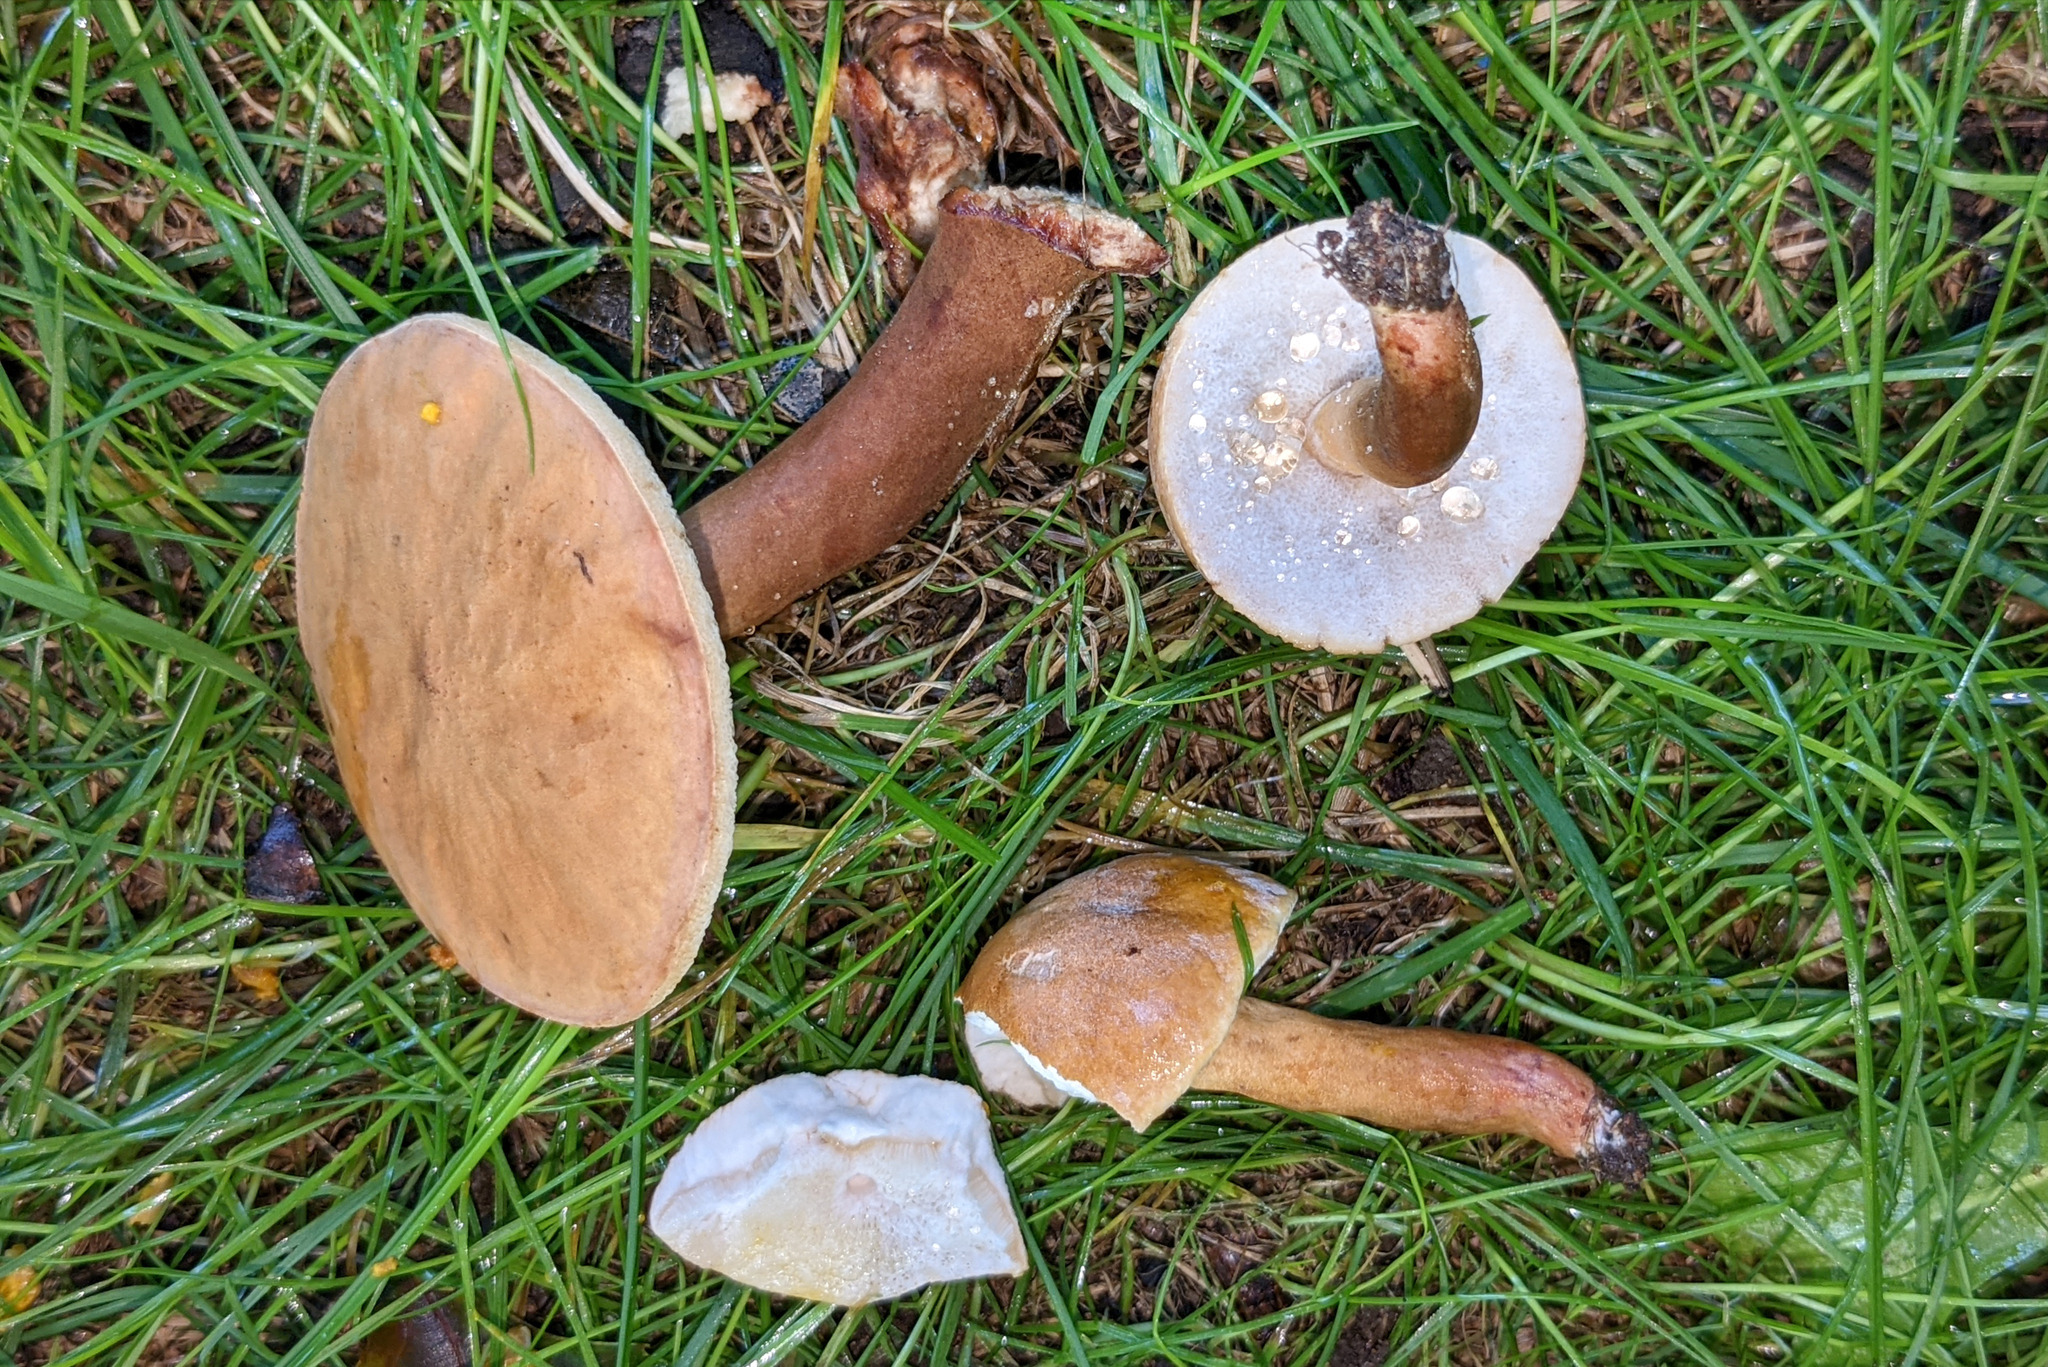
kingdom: Fungi
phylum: Basidiomycota
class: Agaricomycetes
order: Boletales
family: Gyroporaceae
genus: Gyroporus
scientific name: Gyroporus borealis
